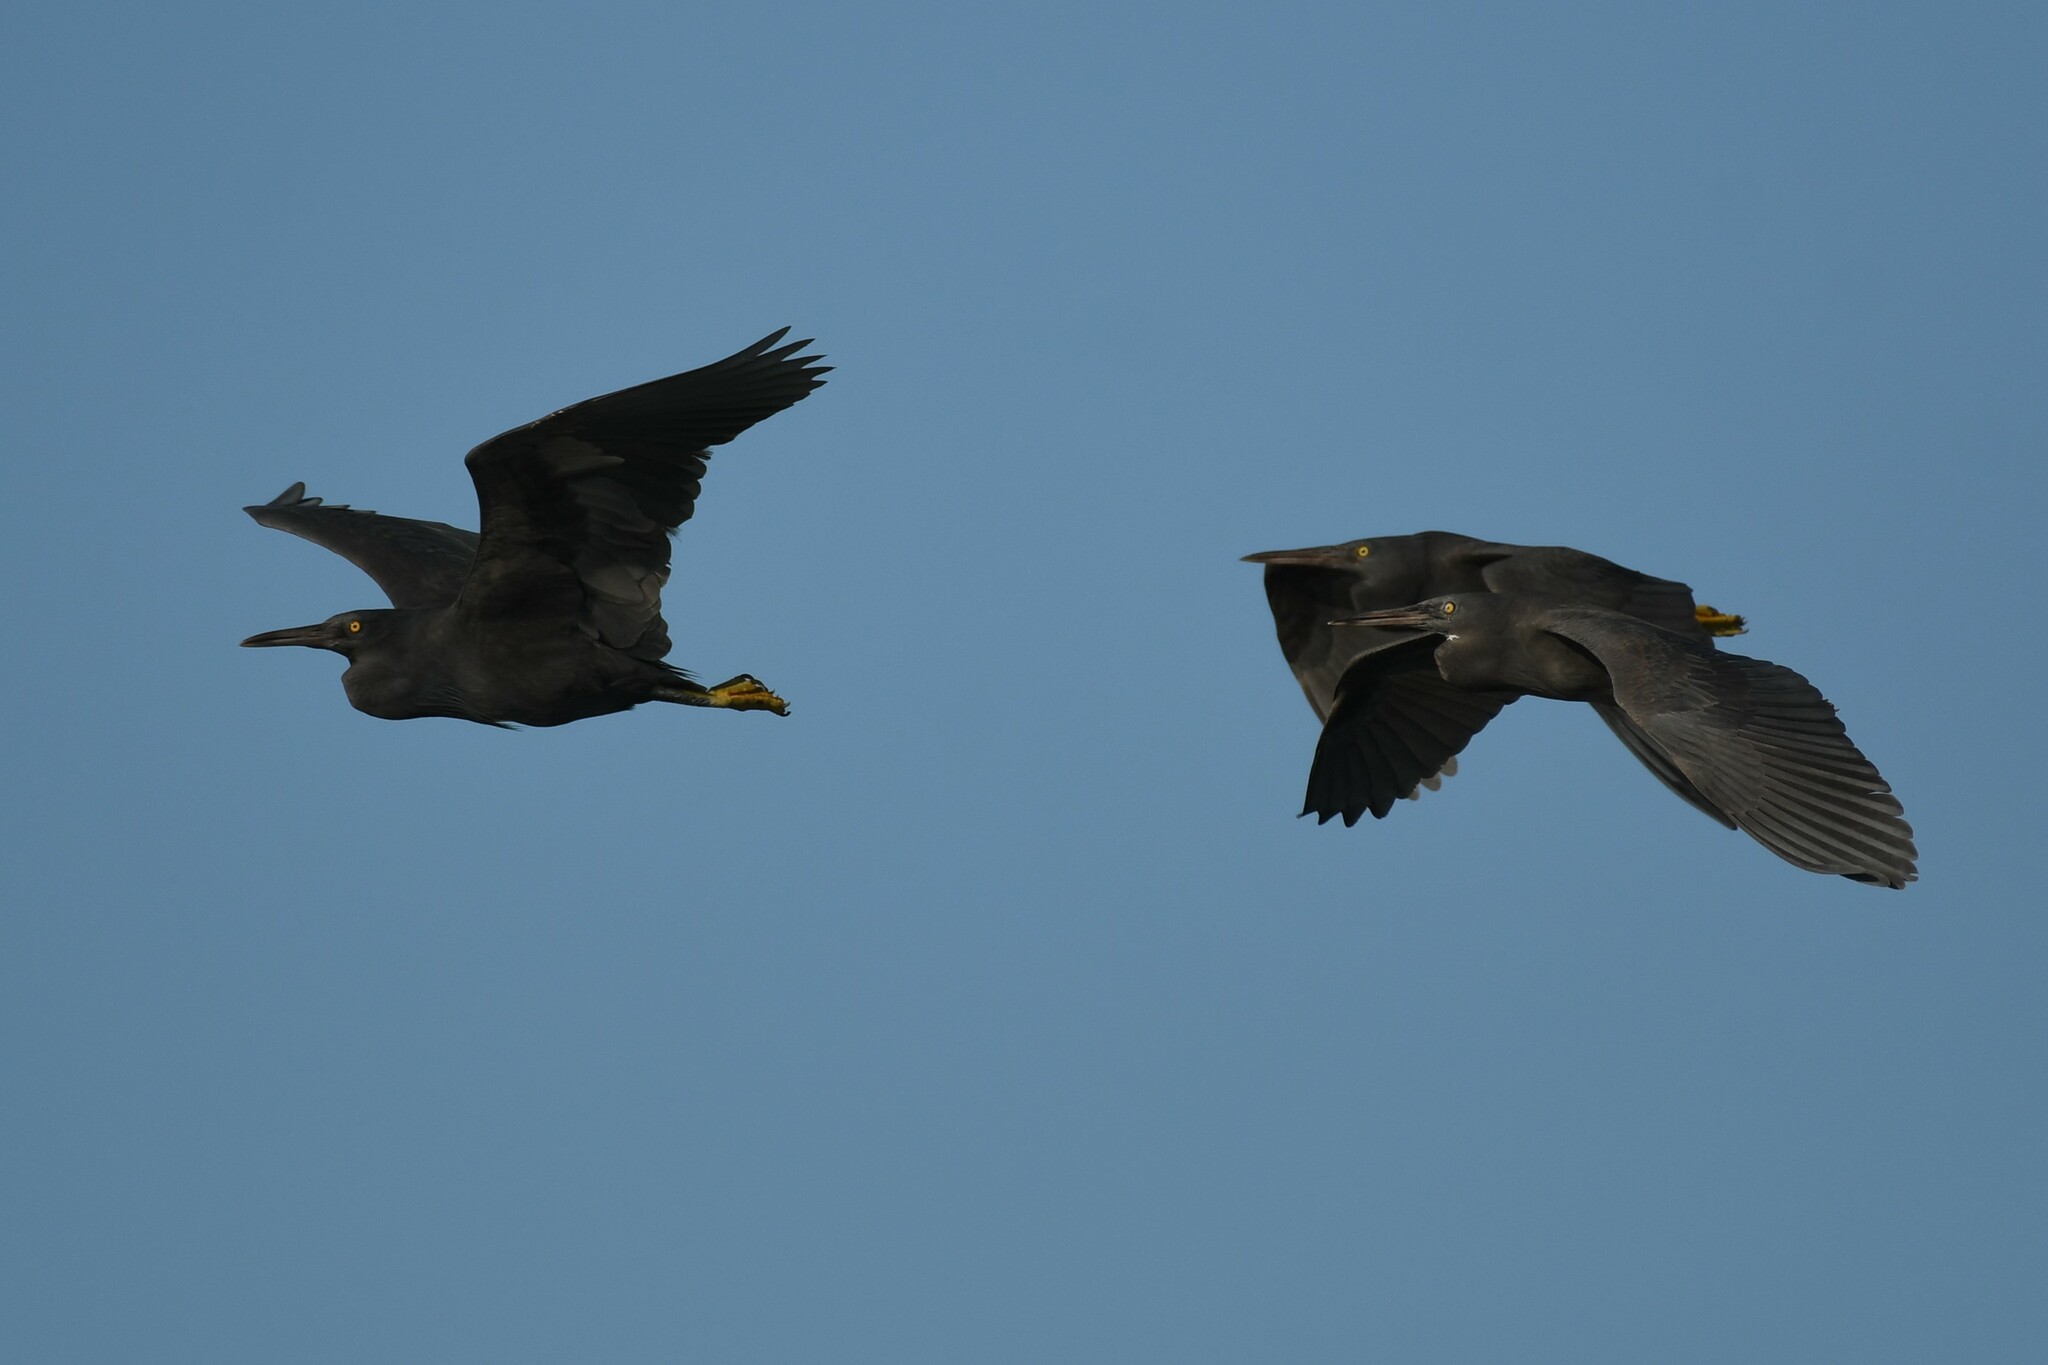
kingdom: Animalia
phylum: Chordata
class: Aves
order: Pelecaniformes
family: Ardeidae
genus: Egretta
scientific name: Egretta sacra
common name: Pacific reef heron
